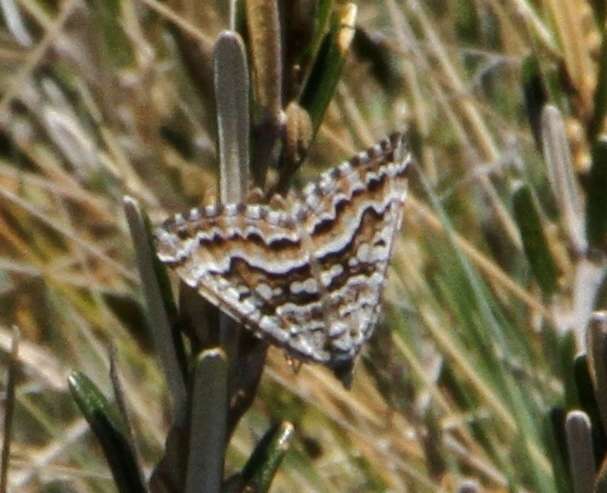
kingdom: Animalia
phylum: Arthropoda
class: Insecta
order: Lepidoptera
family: Geometridae
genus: Chrysolarentia
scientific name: Chrysolarentia nephodes
